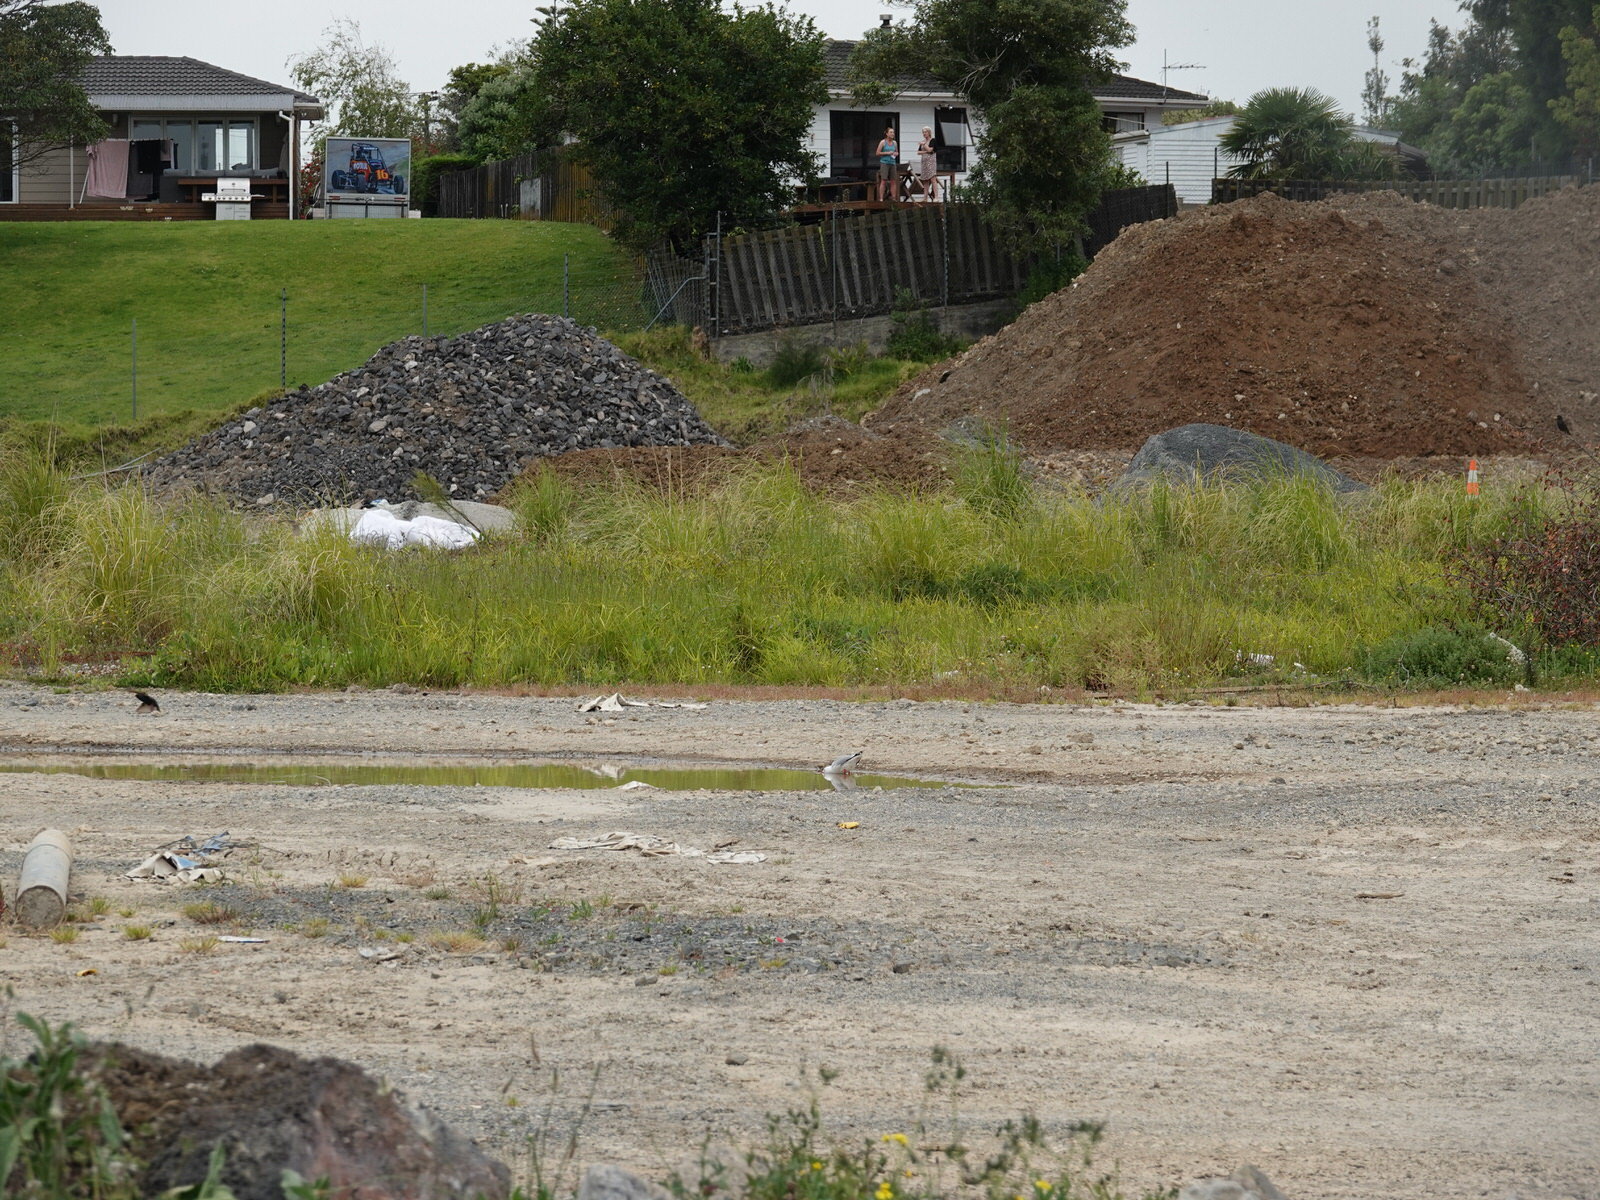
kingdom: Animalia
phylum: Chordata
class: Aves
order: Charadriiformes
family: Laridae
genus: Chroicocephalus
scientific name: Chroicocephalus novaehollandiae
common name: Silver gull
